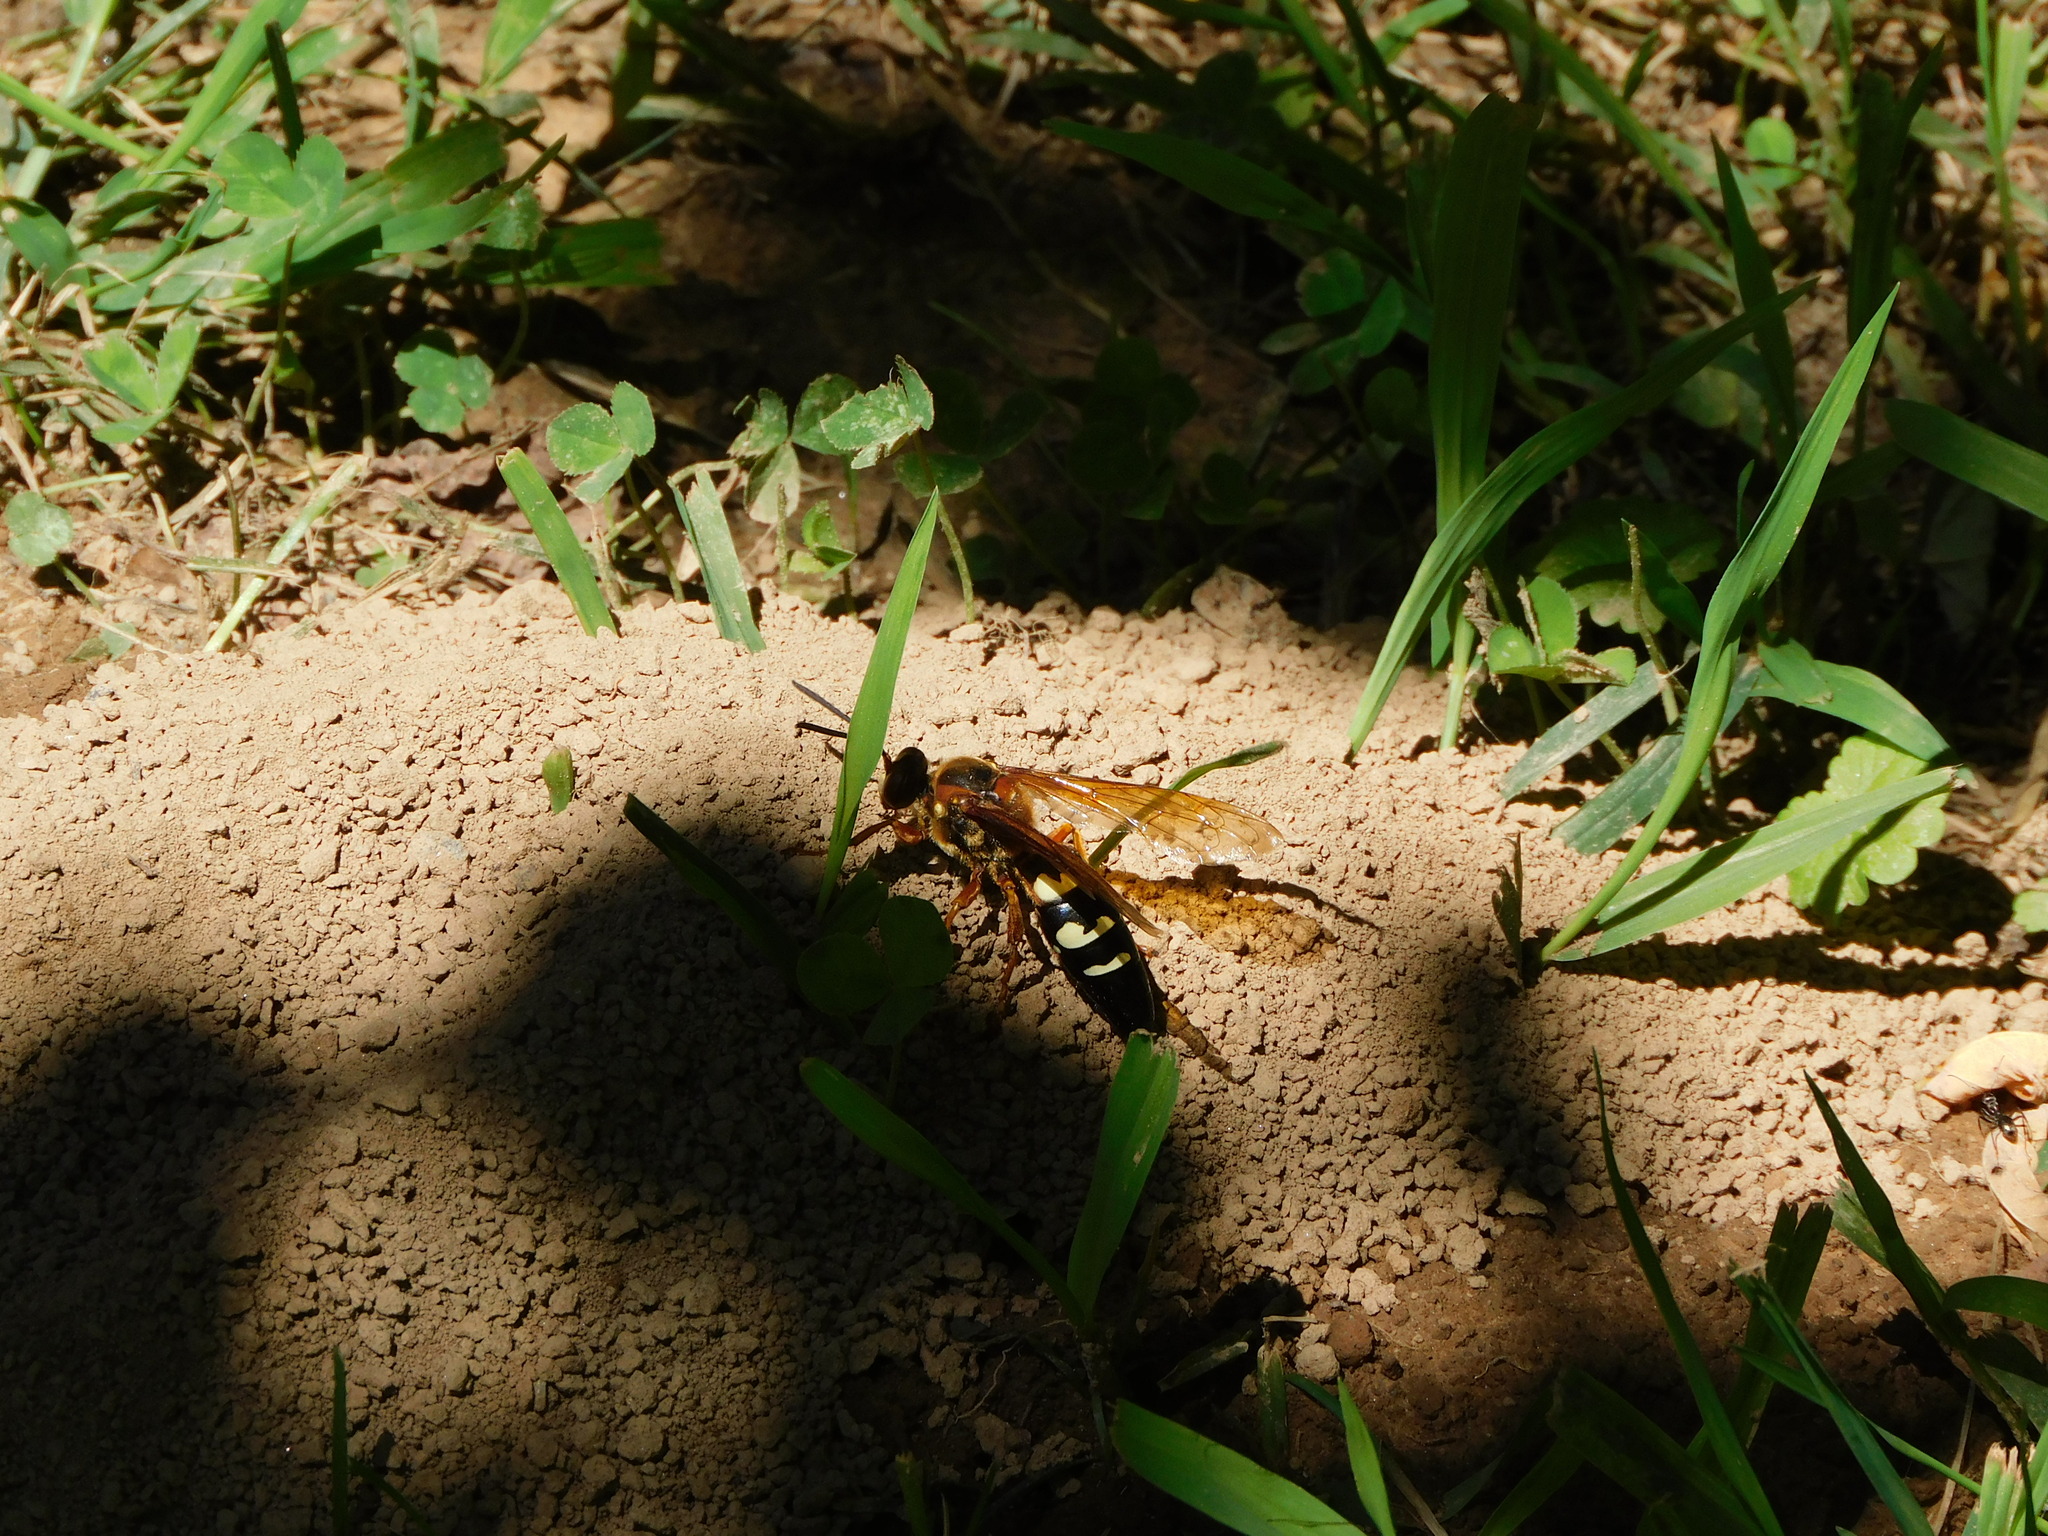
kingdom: Animalia
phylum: Arthropoda
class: Insecta
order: Hymenoptera
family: Crabronidae
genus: Sphecius
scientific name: Sphecius speciosus
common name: Cicada killer
